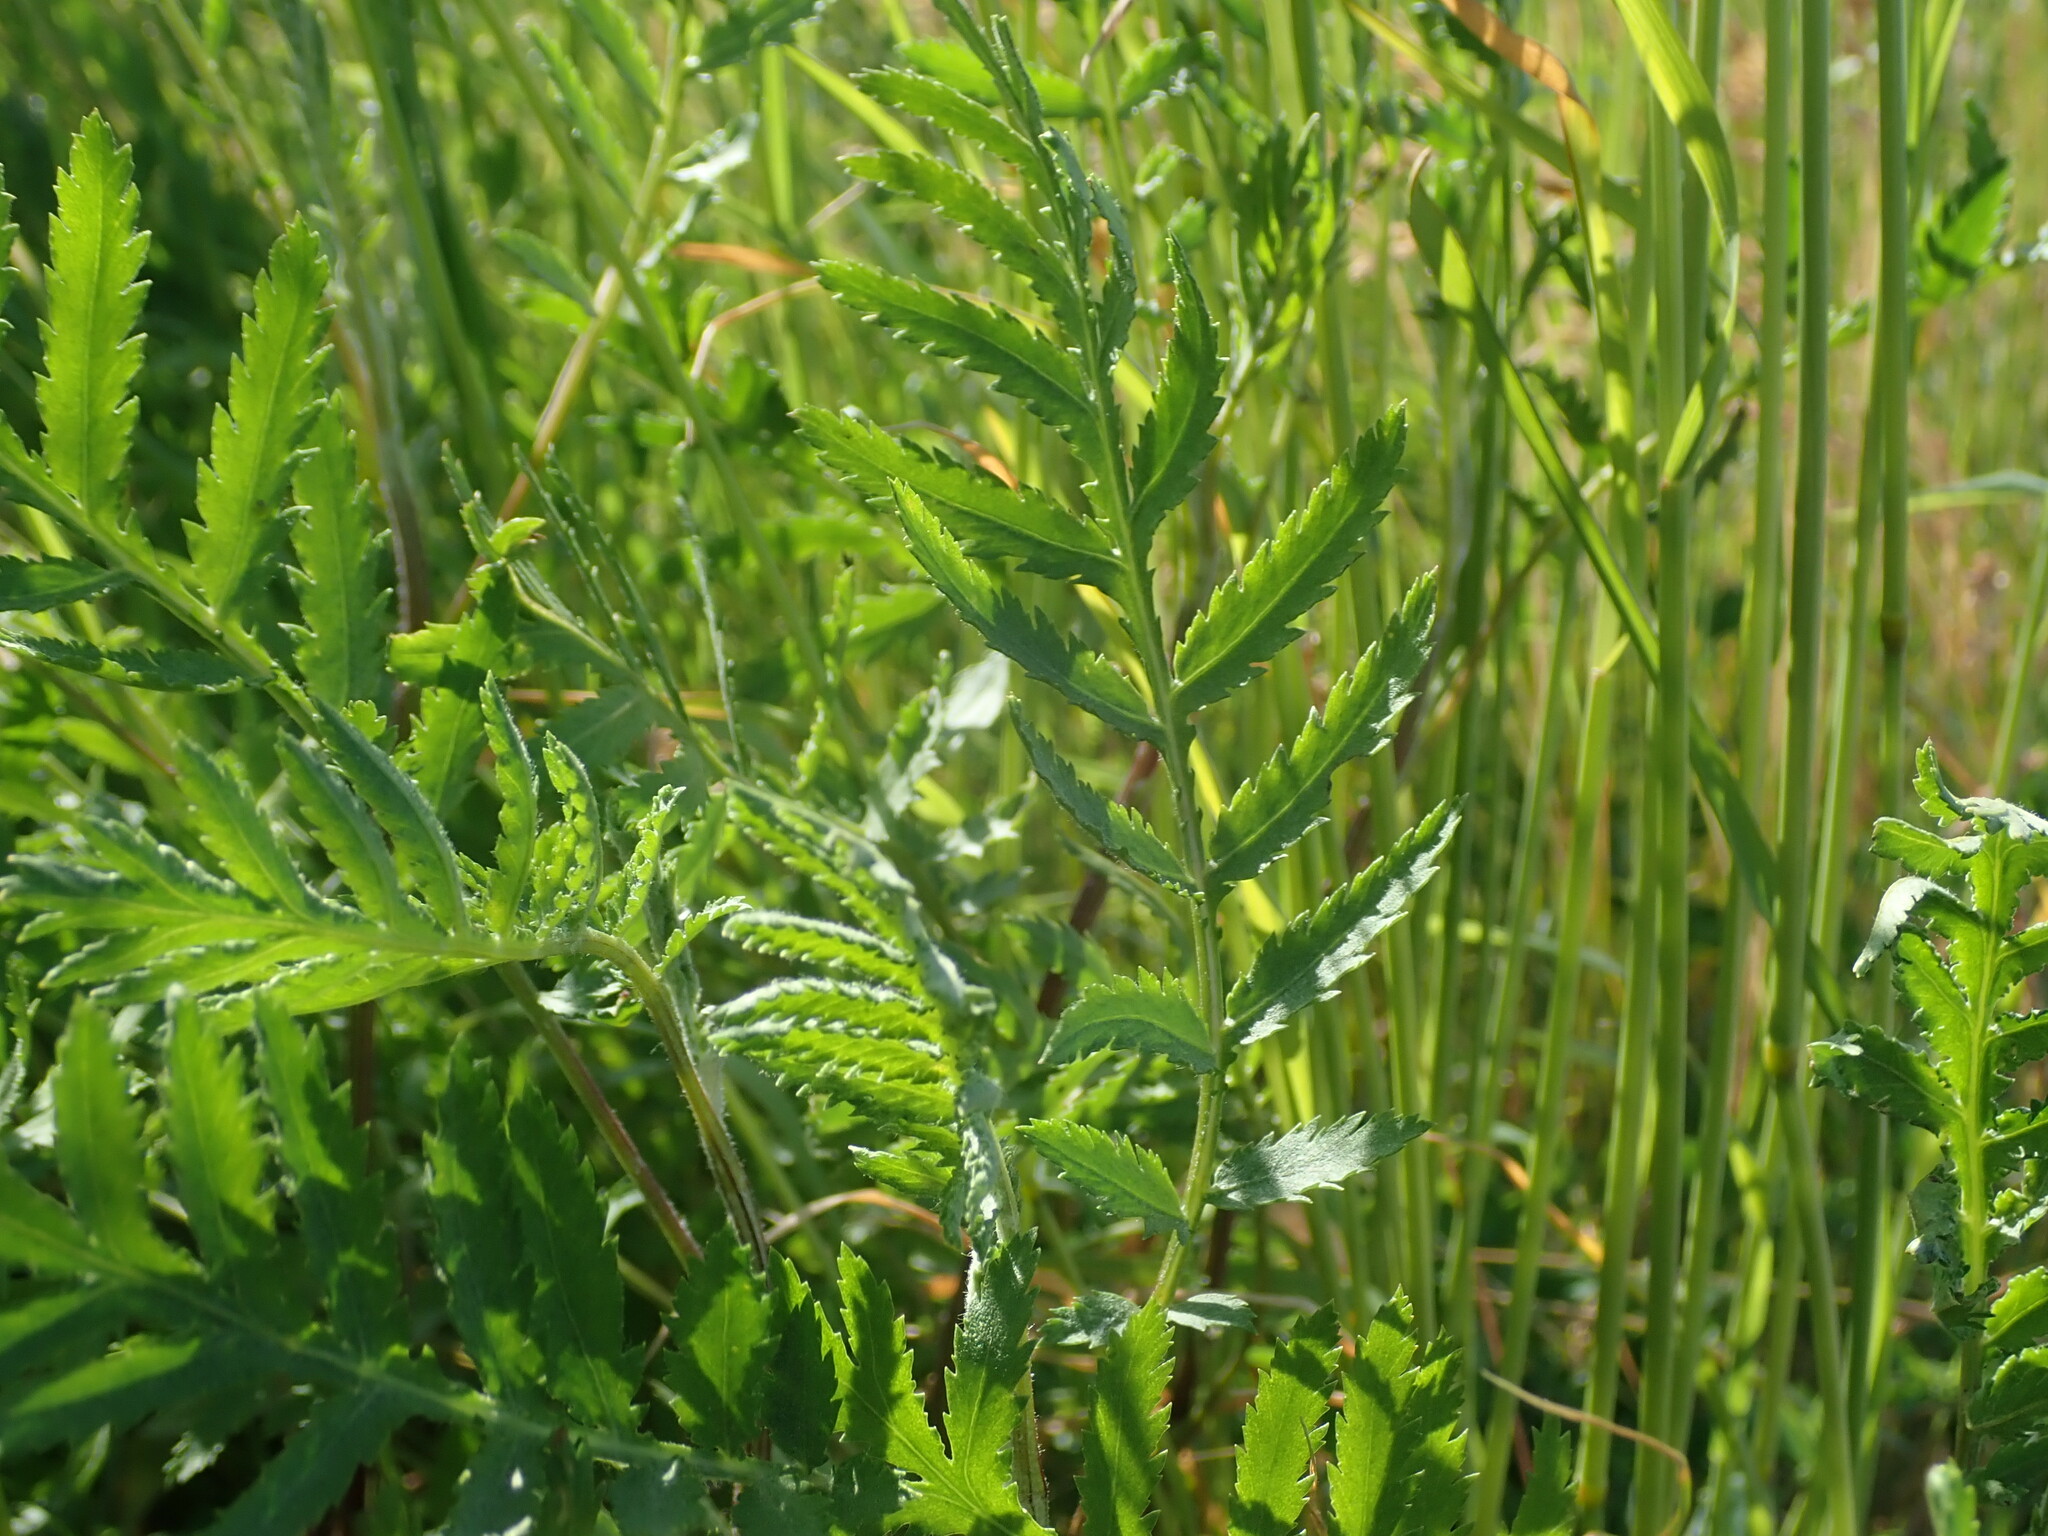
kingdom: Plantae
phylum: Tracheophyta
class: Magnoliopsida
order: Asterales
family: Asteraceae
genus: Tanacetum
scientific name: Tanacetum vulgare
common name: Common tansy
